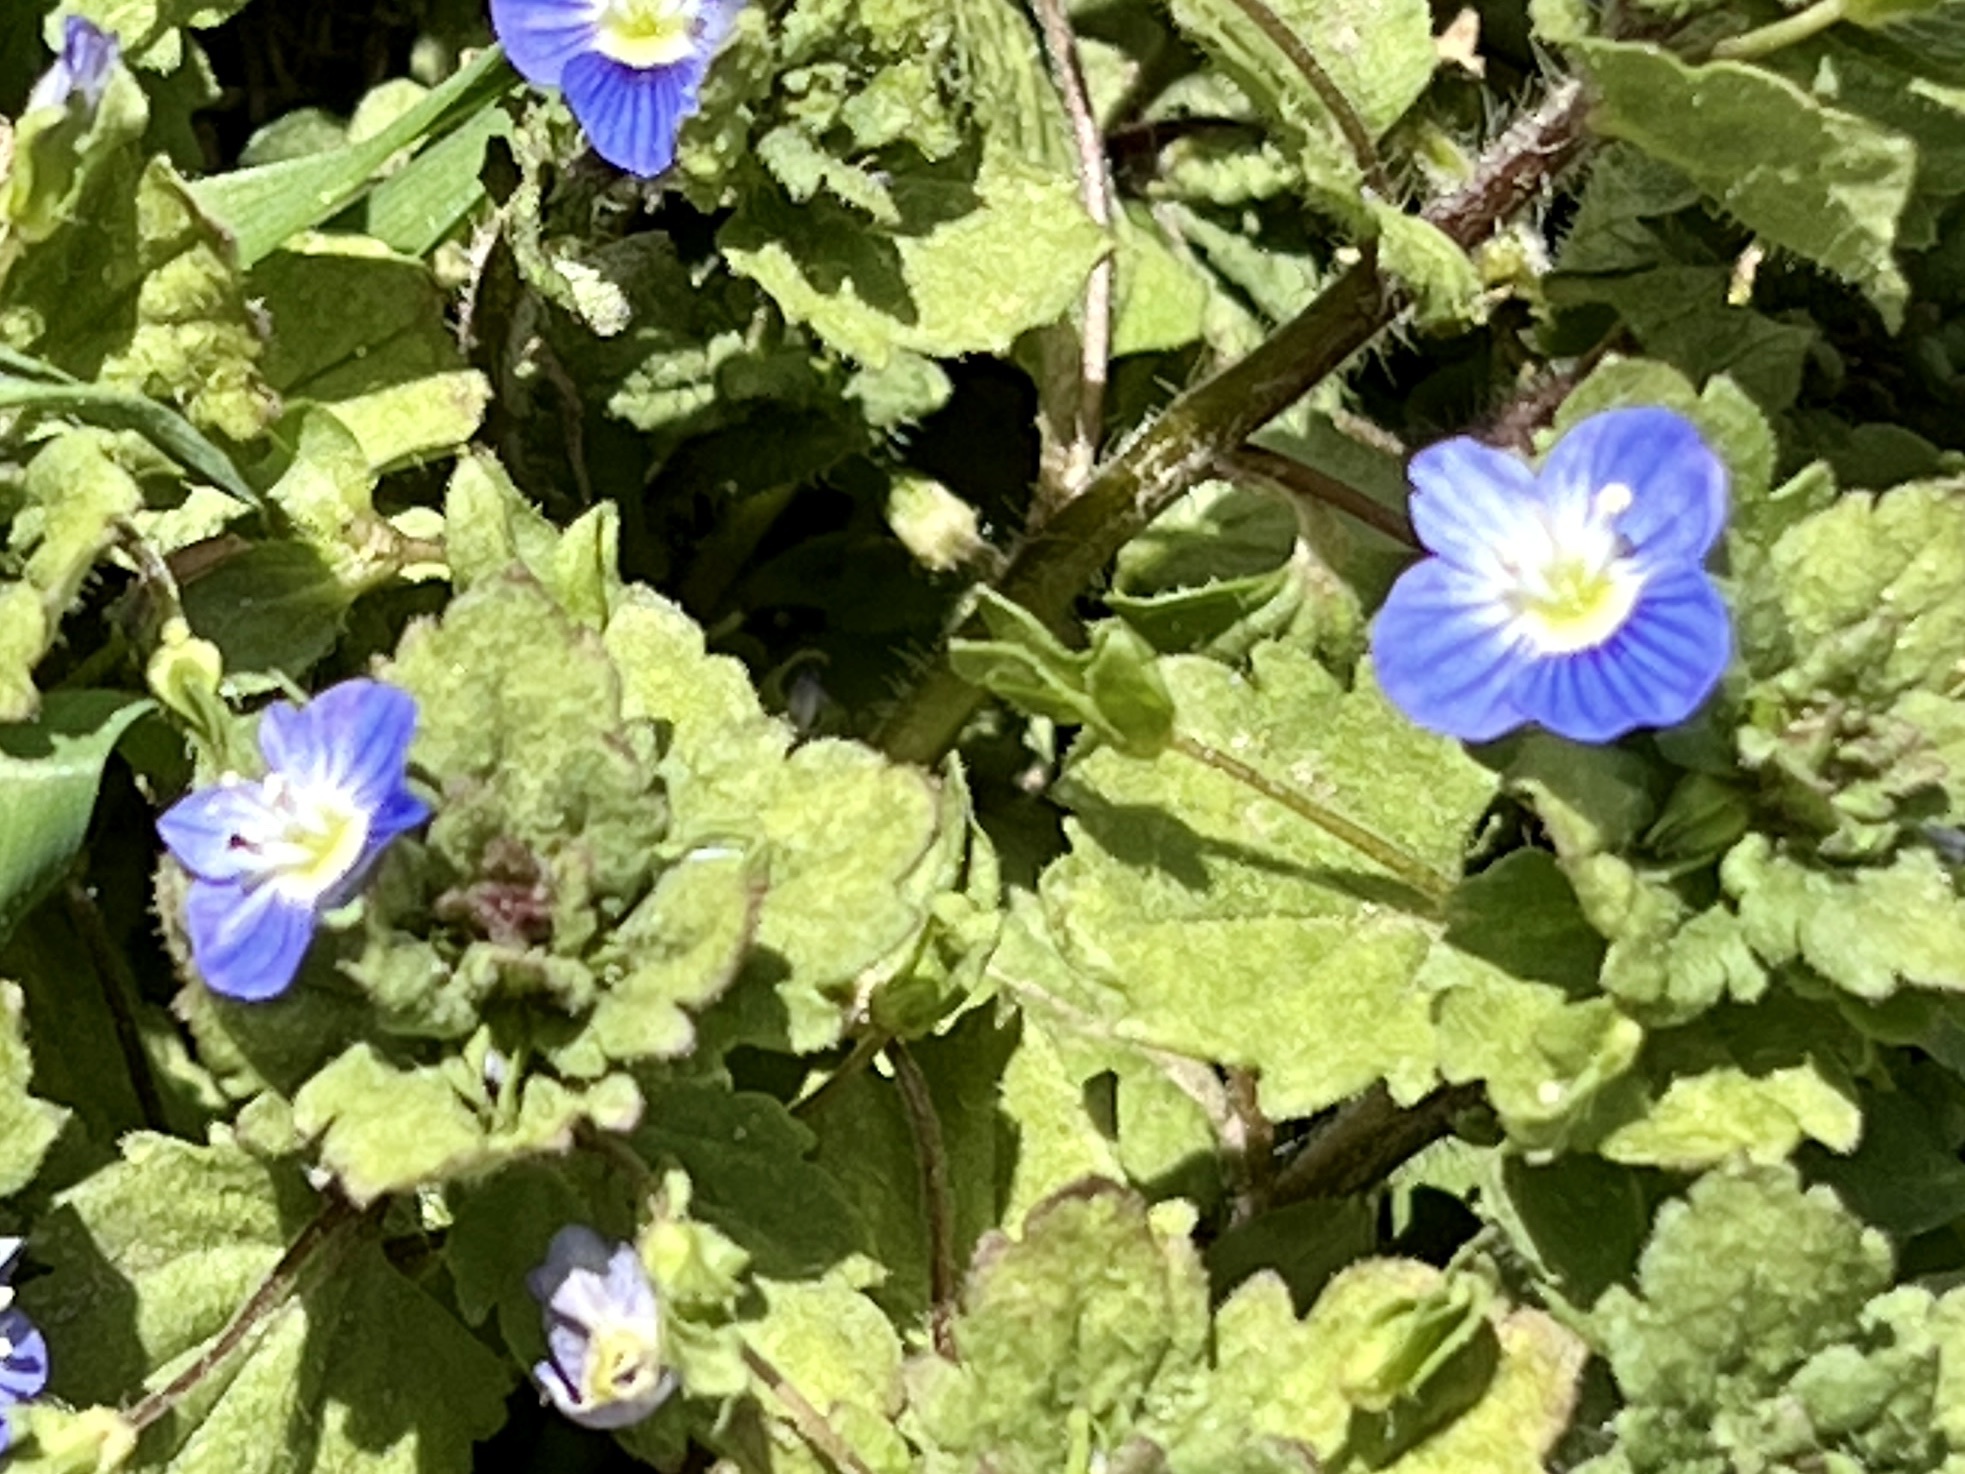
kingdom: Plantae
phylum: Tracheophyta
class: Magnoliopsida
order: Lamiales
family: Plantaginaceae
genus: Veronica
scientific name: Veronica persica
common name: Common field-speedwell
